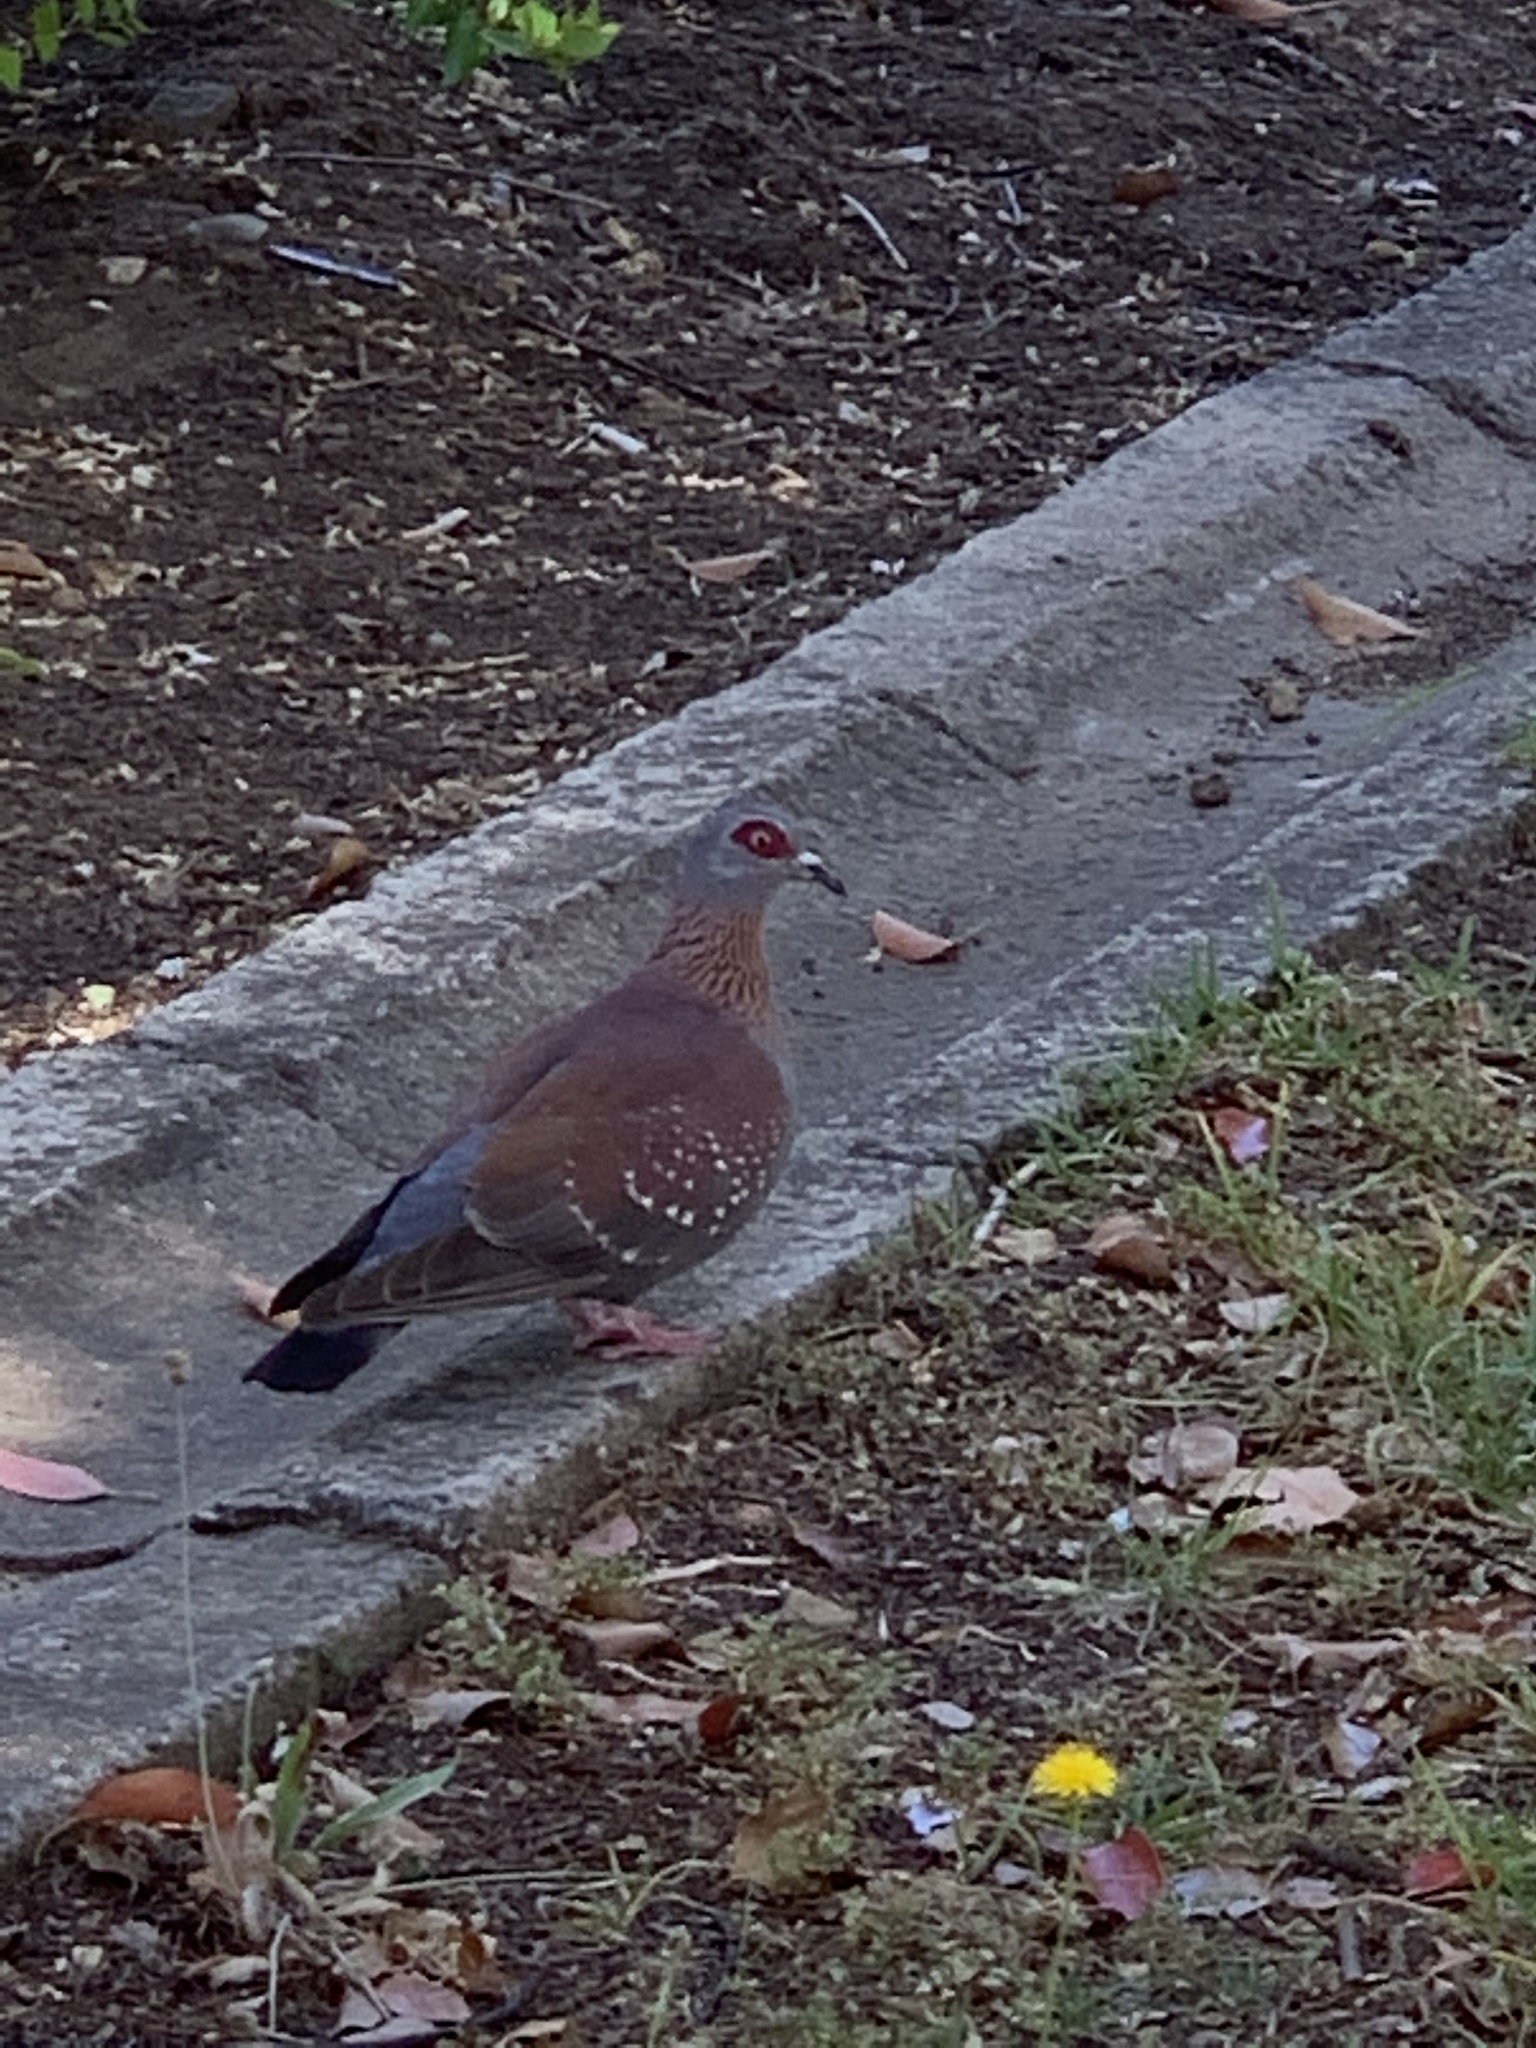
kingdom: Animalia
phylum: Chordata
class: Aves
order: Columbiformes
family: Columbidae
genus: Columba
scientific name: Columba guinea
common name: Speckled pigeon
